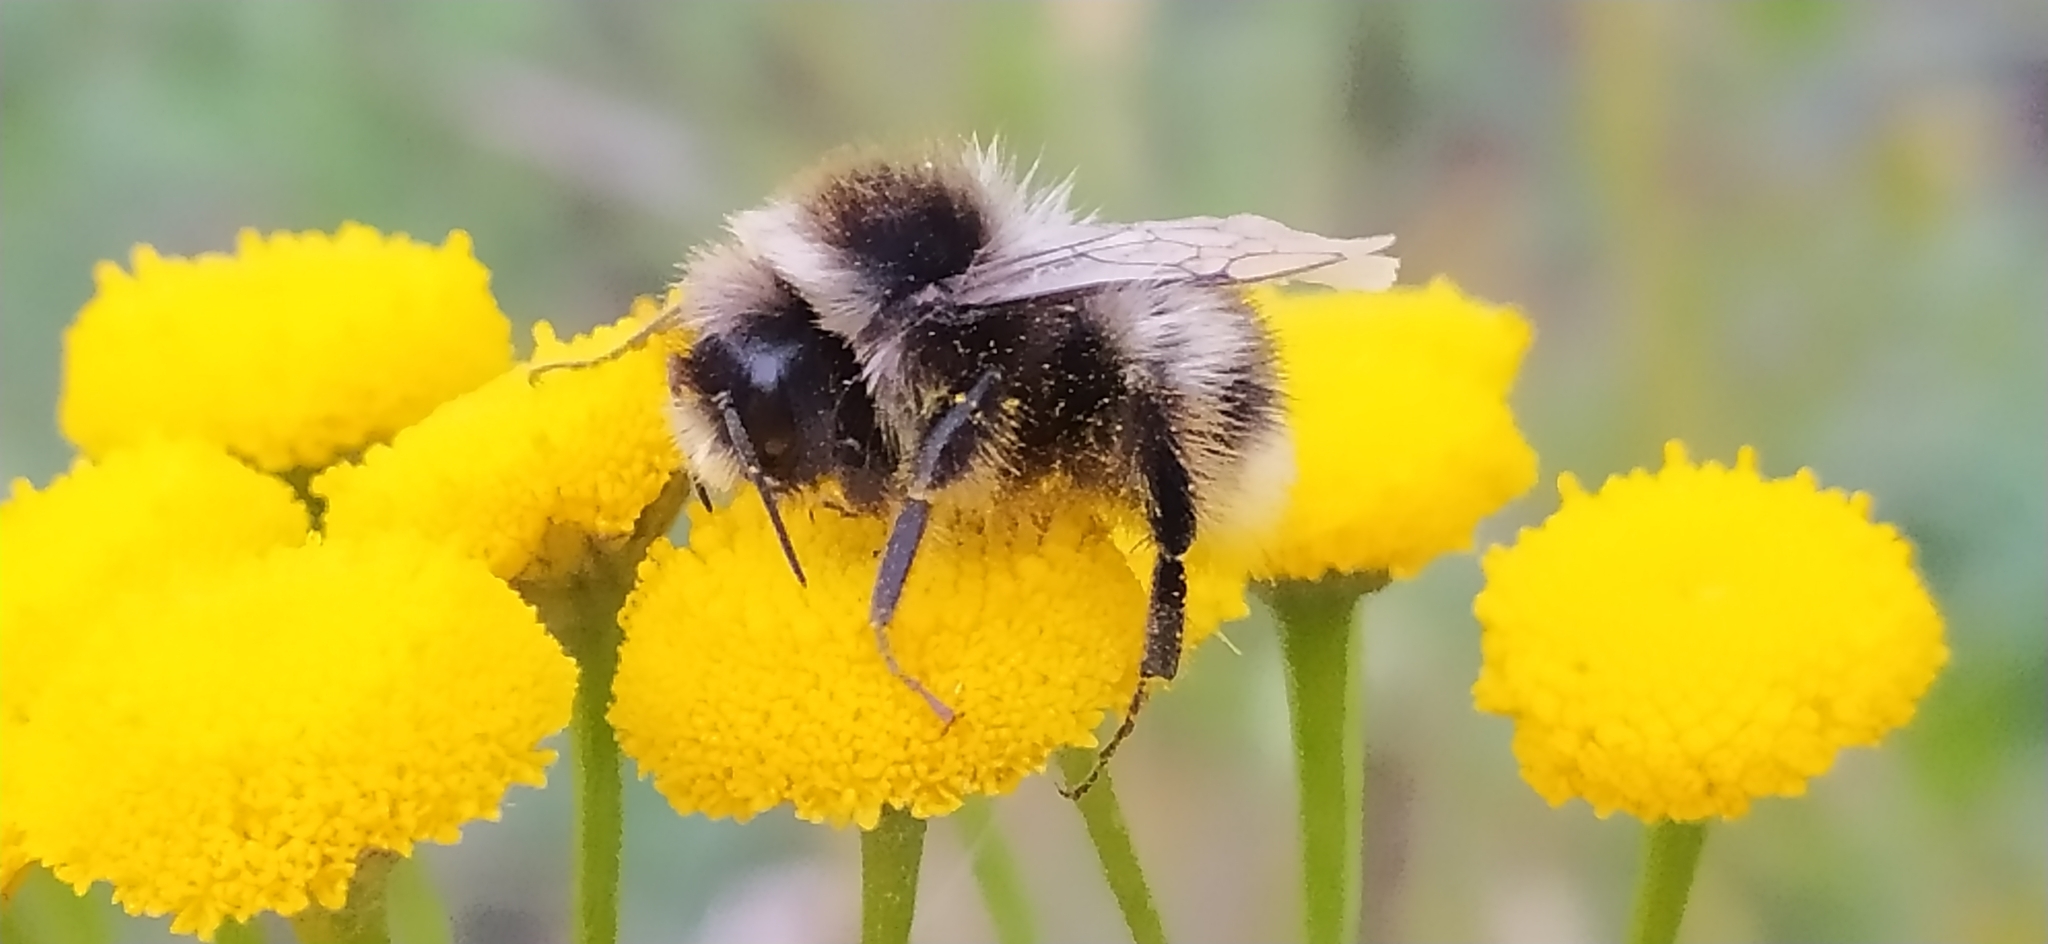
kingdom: Animalia
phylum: Arthropoda
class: Insecta
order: Hymenoptera
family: Apidae
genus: Bombus
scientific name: Bombus
